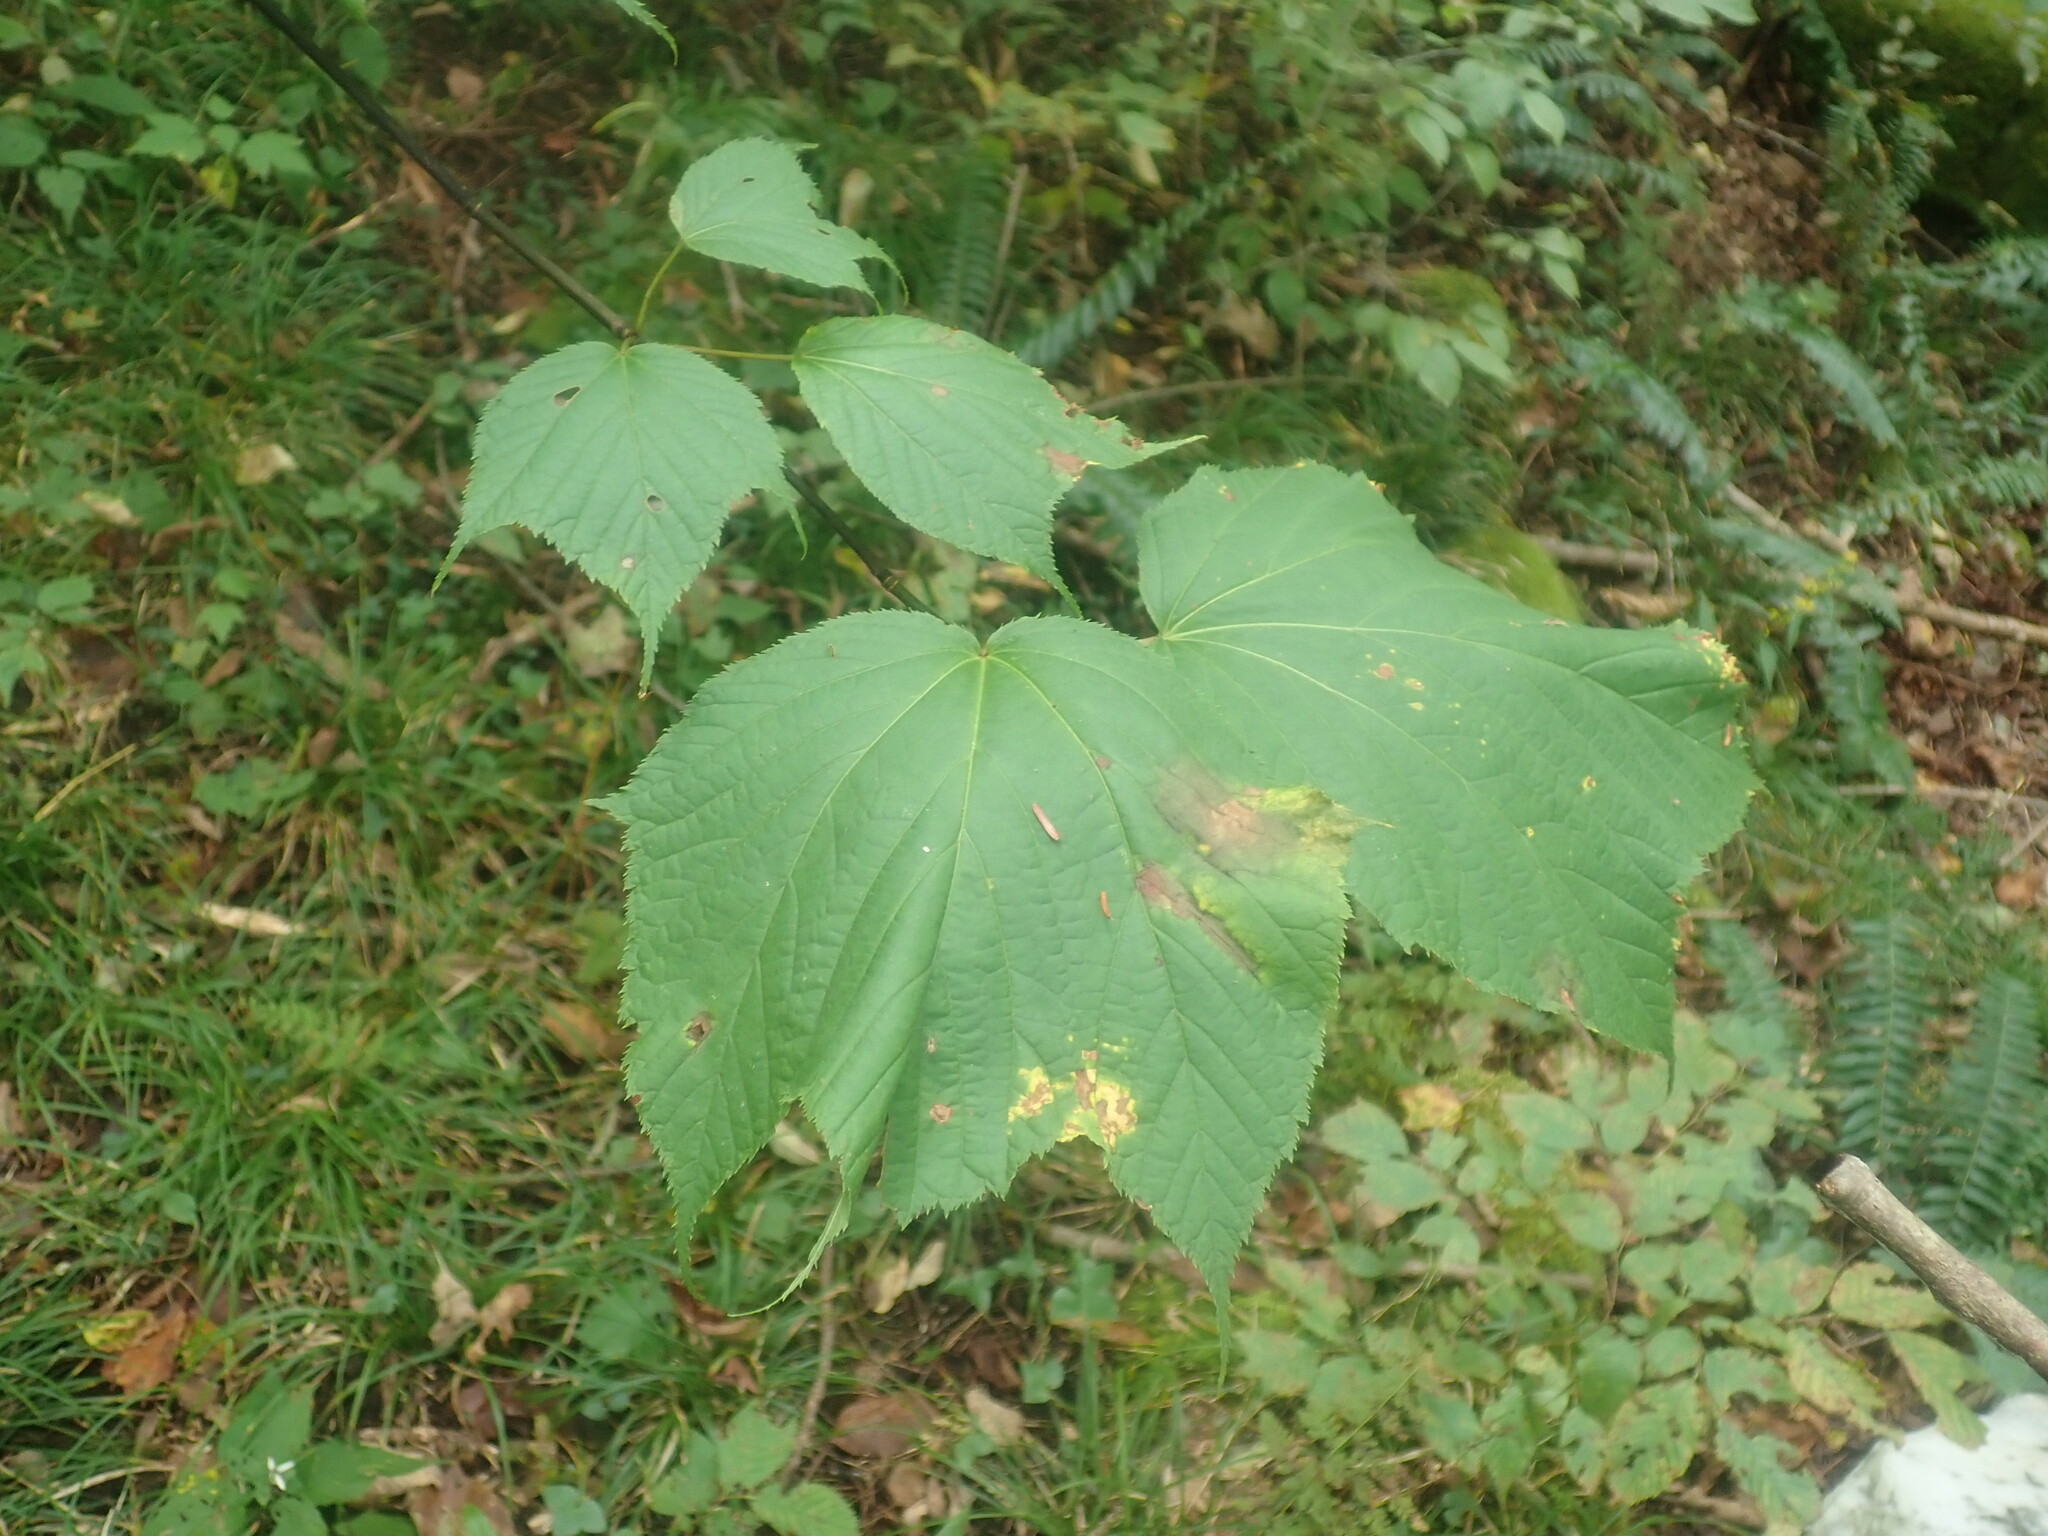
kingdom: Plantae
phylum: Tracheophyta
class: Magnoliopsida
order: Sapindales
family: Sapindaceae
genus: Acer
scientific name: Acer pensylvanicum
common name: Moosewood
